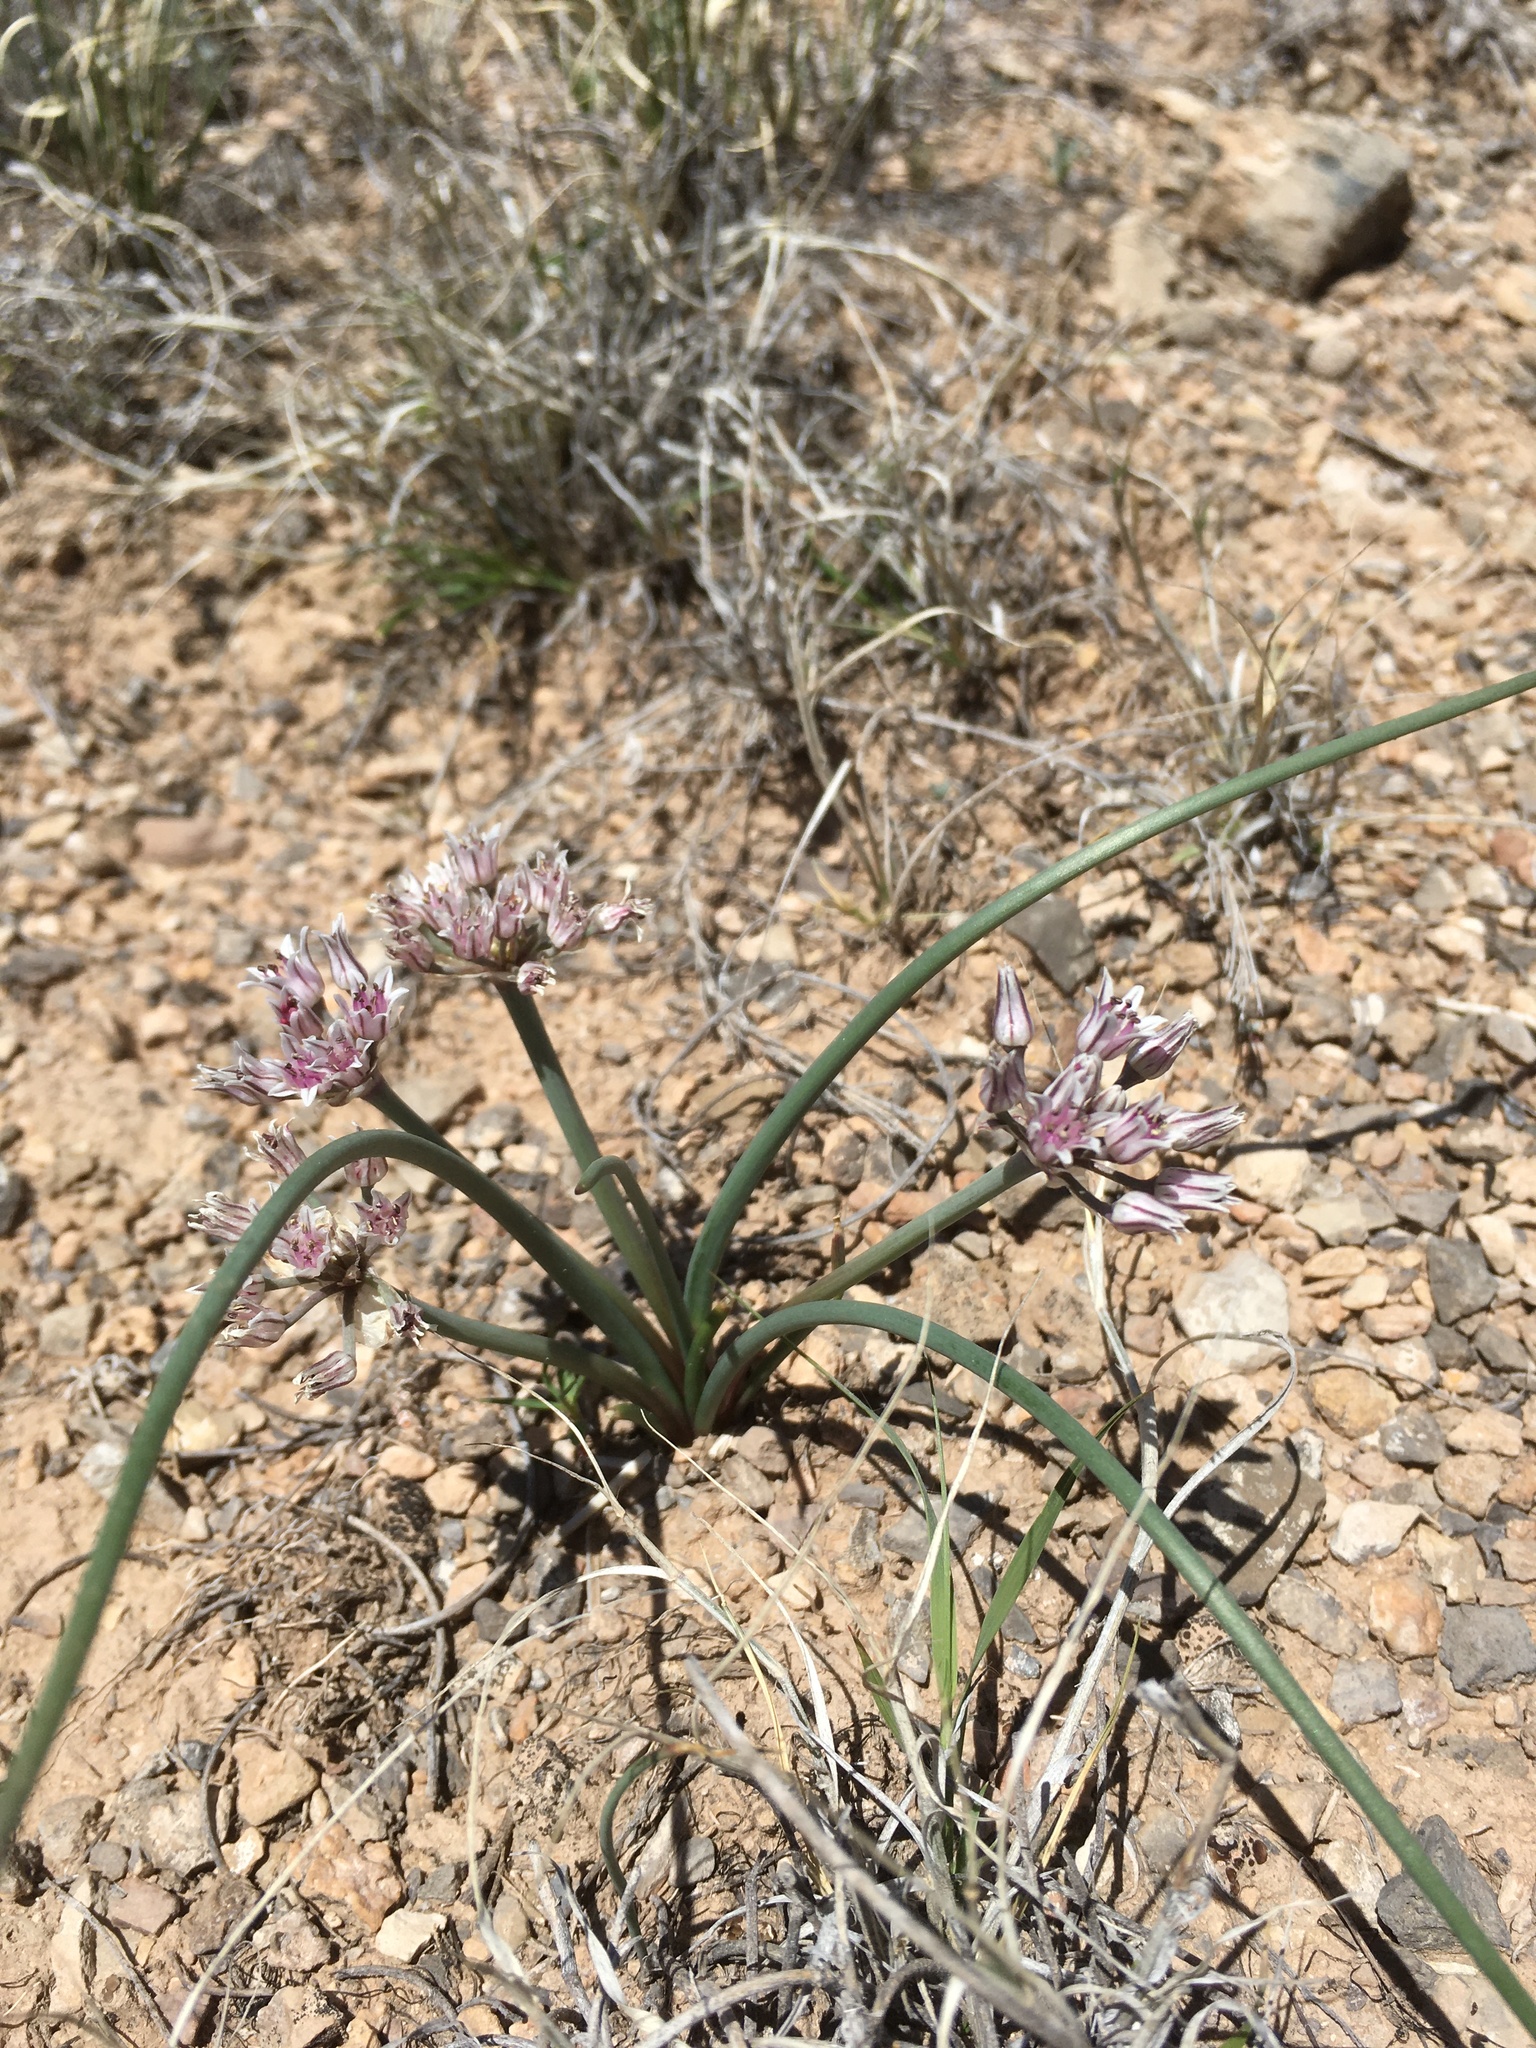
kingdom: Plantae
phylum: Tracheophyta
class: Liliopsida
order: Asparagales
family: Amaryllidaceae
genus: Allium
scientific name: Allium macropetalum
